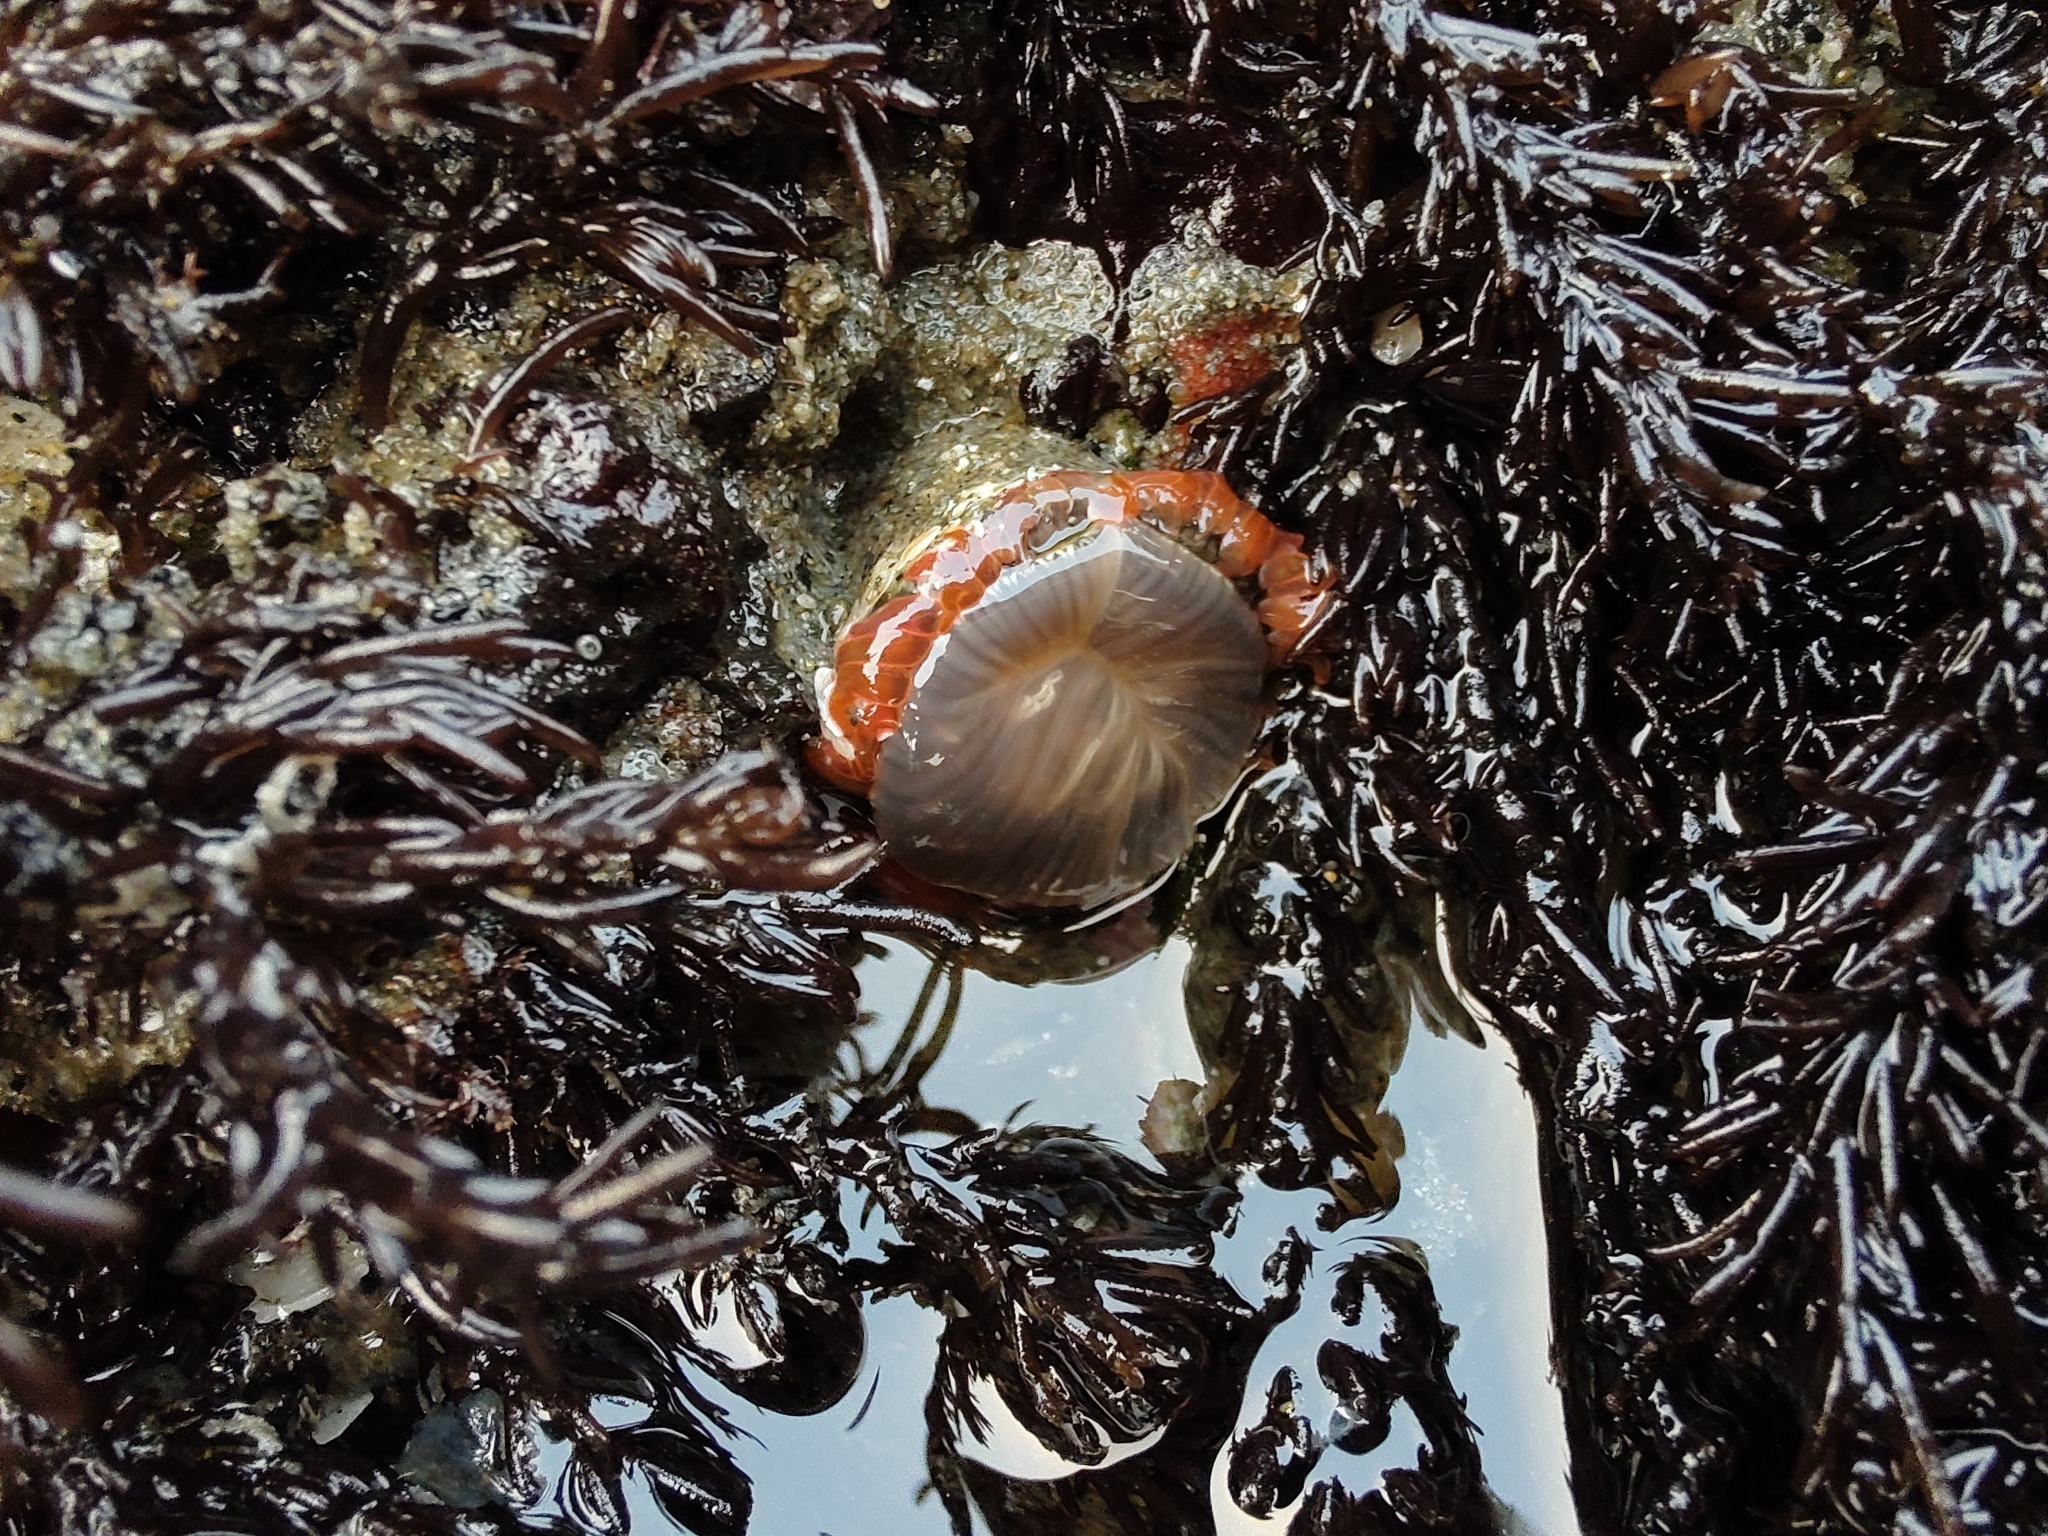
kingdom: Animalia
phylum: Cnidaria
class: Anthozoa
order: Actiniaria
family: Actiniidae
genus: Anthopleura
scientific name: Anthopleura artemisia
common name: Buried sea anemone
